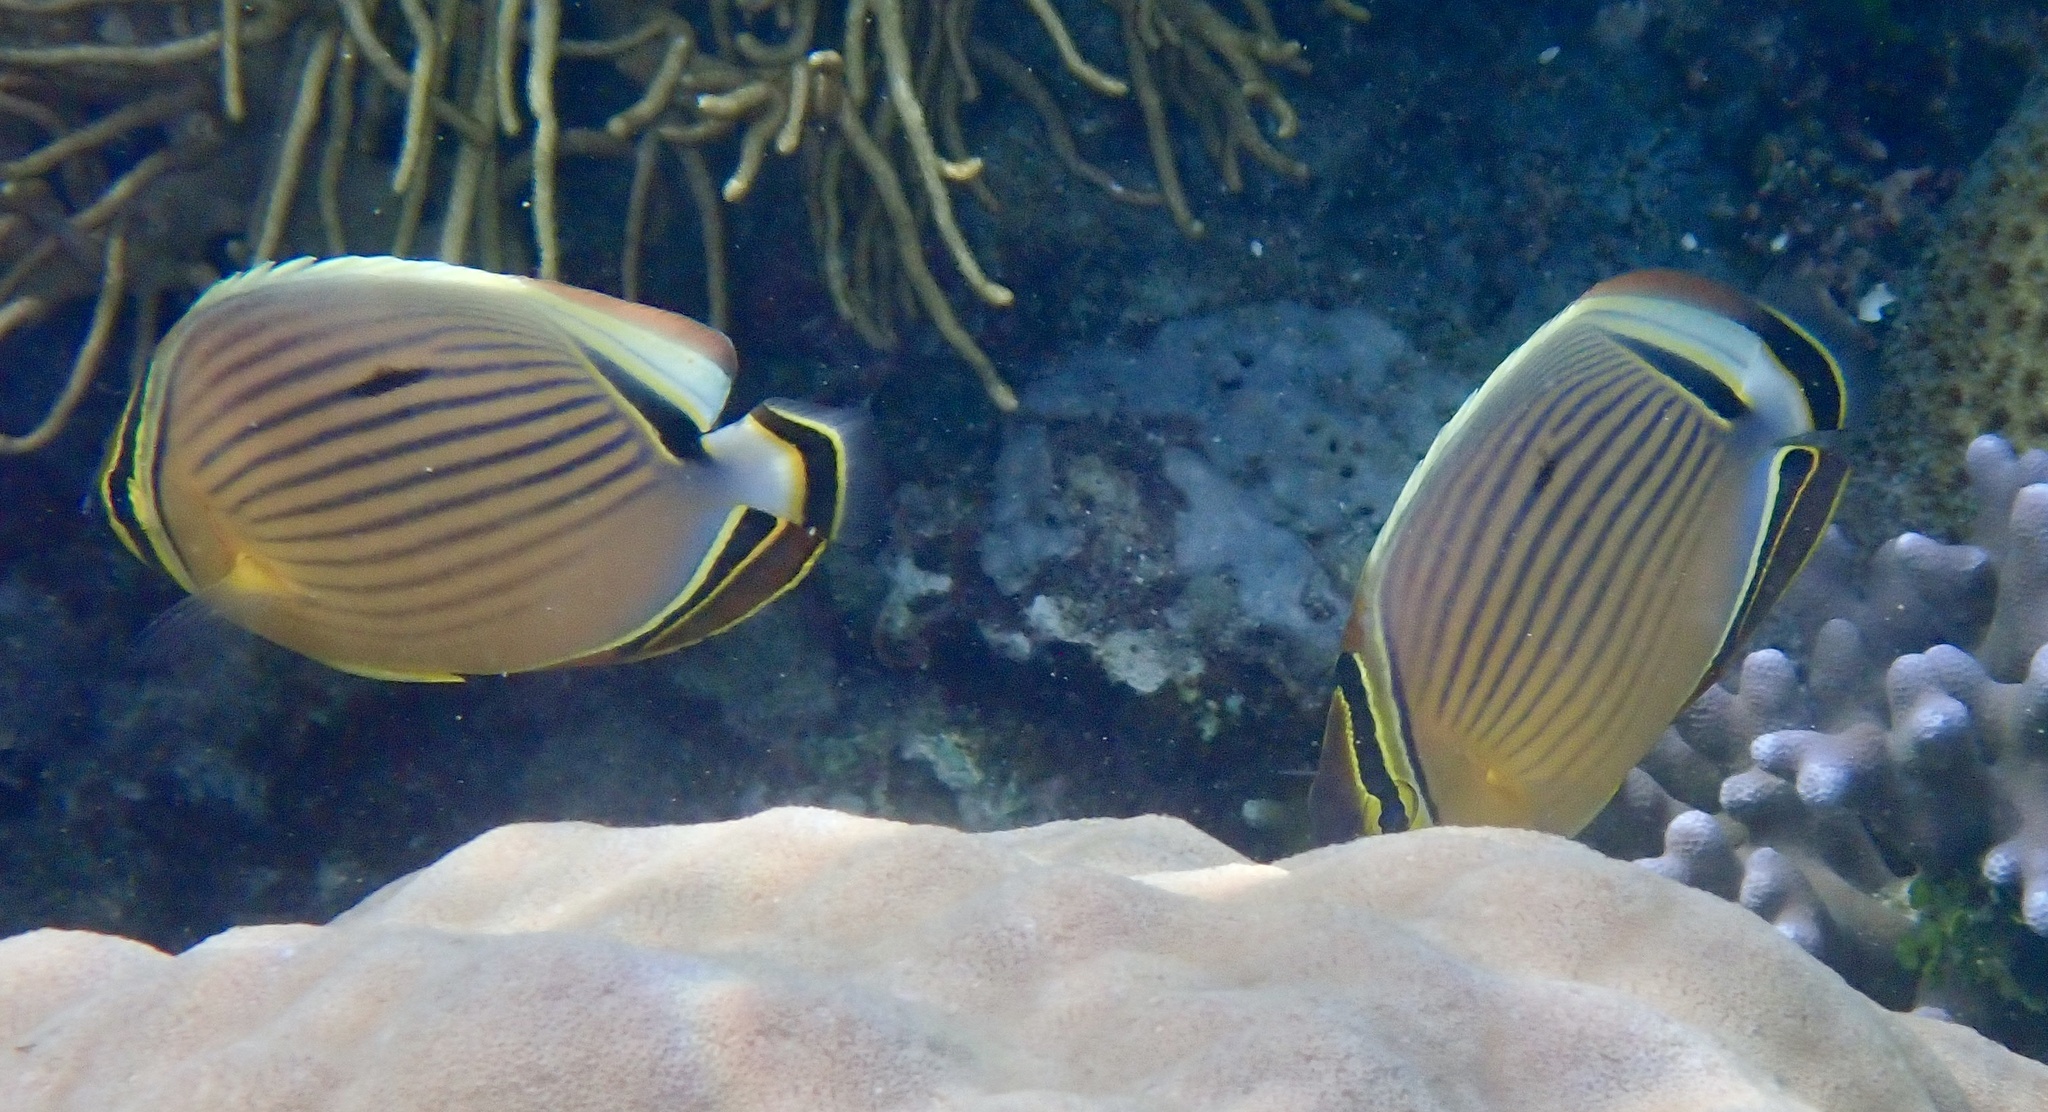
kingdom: Animalia
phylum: Chordata
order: Perciformes
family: Chaetodontidae
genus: Chaetodon
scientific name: Chaetodon lunulatus
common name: Redfin butterflyfish
